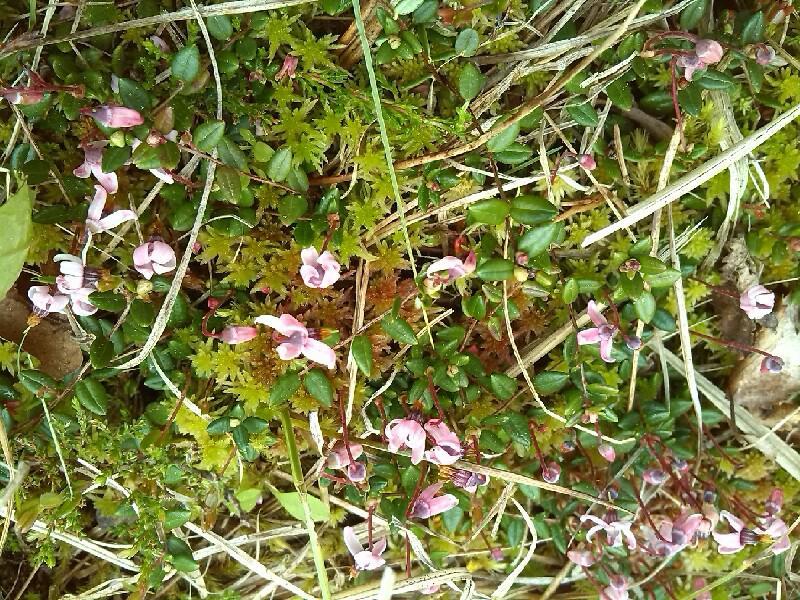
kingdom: Plantae
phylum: Tracheophyta
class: Magnoliopsida
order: Ericales
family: Ericaceae
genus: Vaccinium
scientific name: Vaccinium oxycoccos
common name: Cranberry
